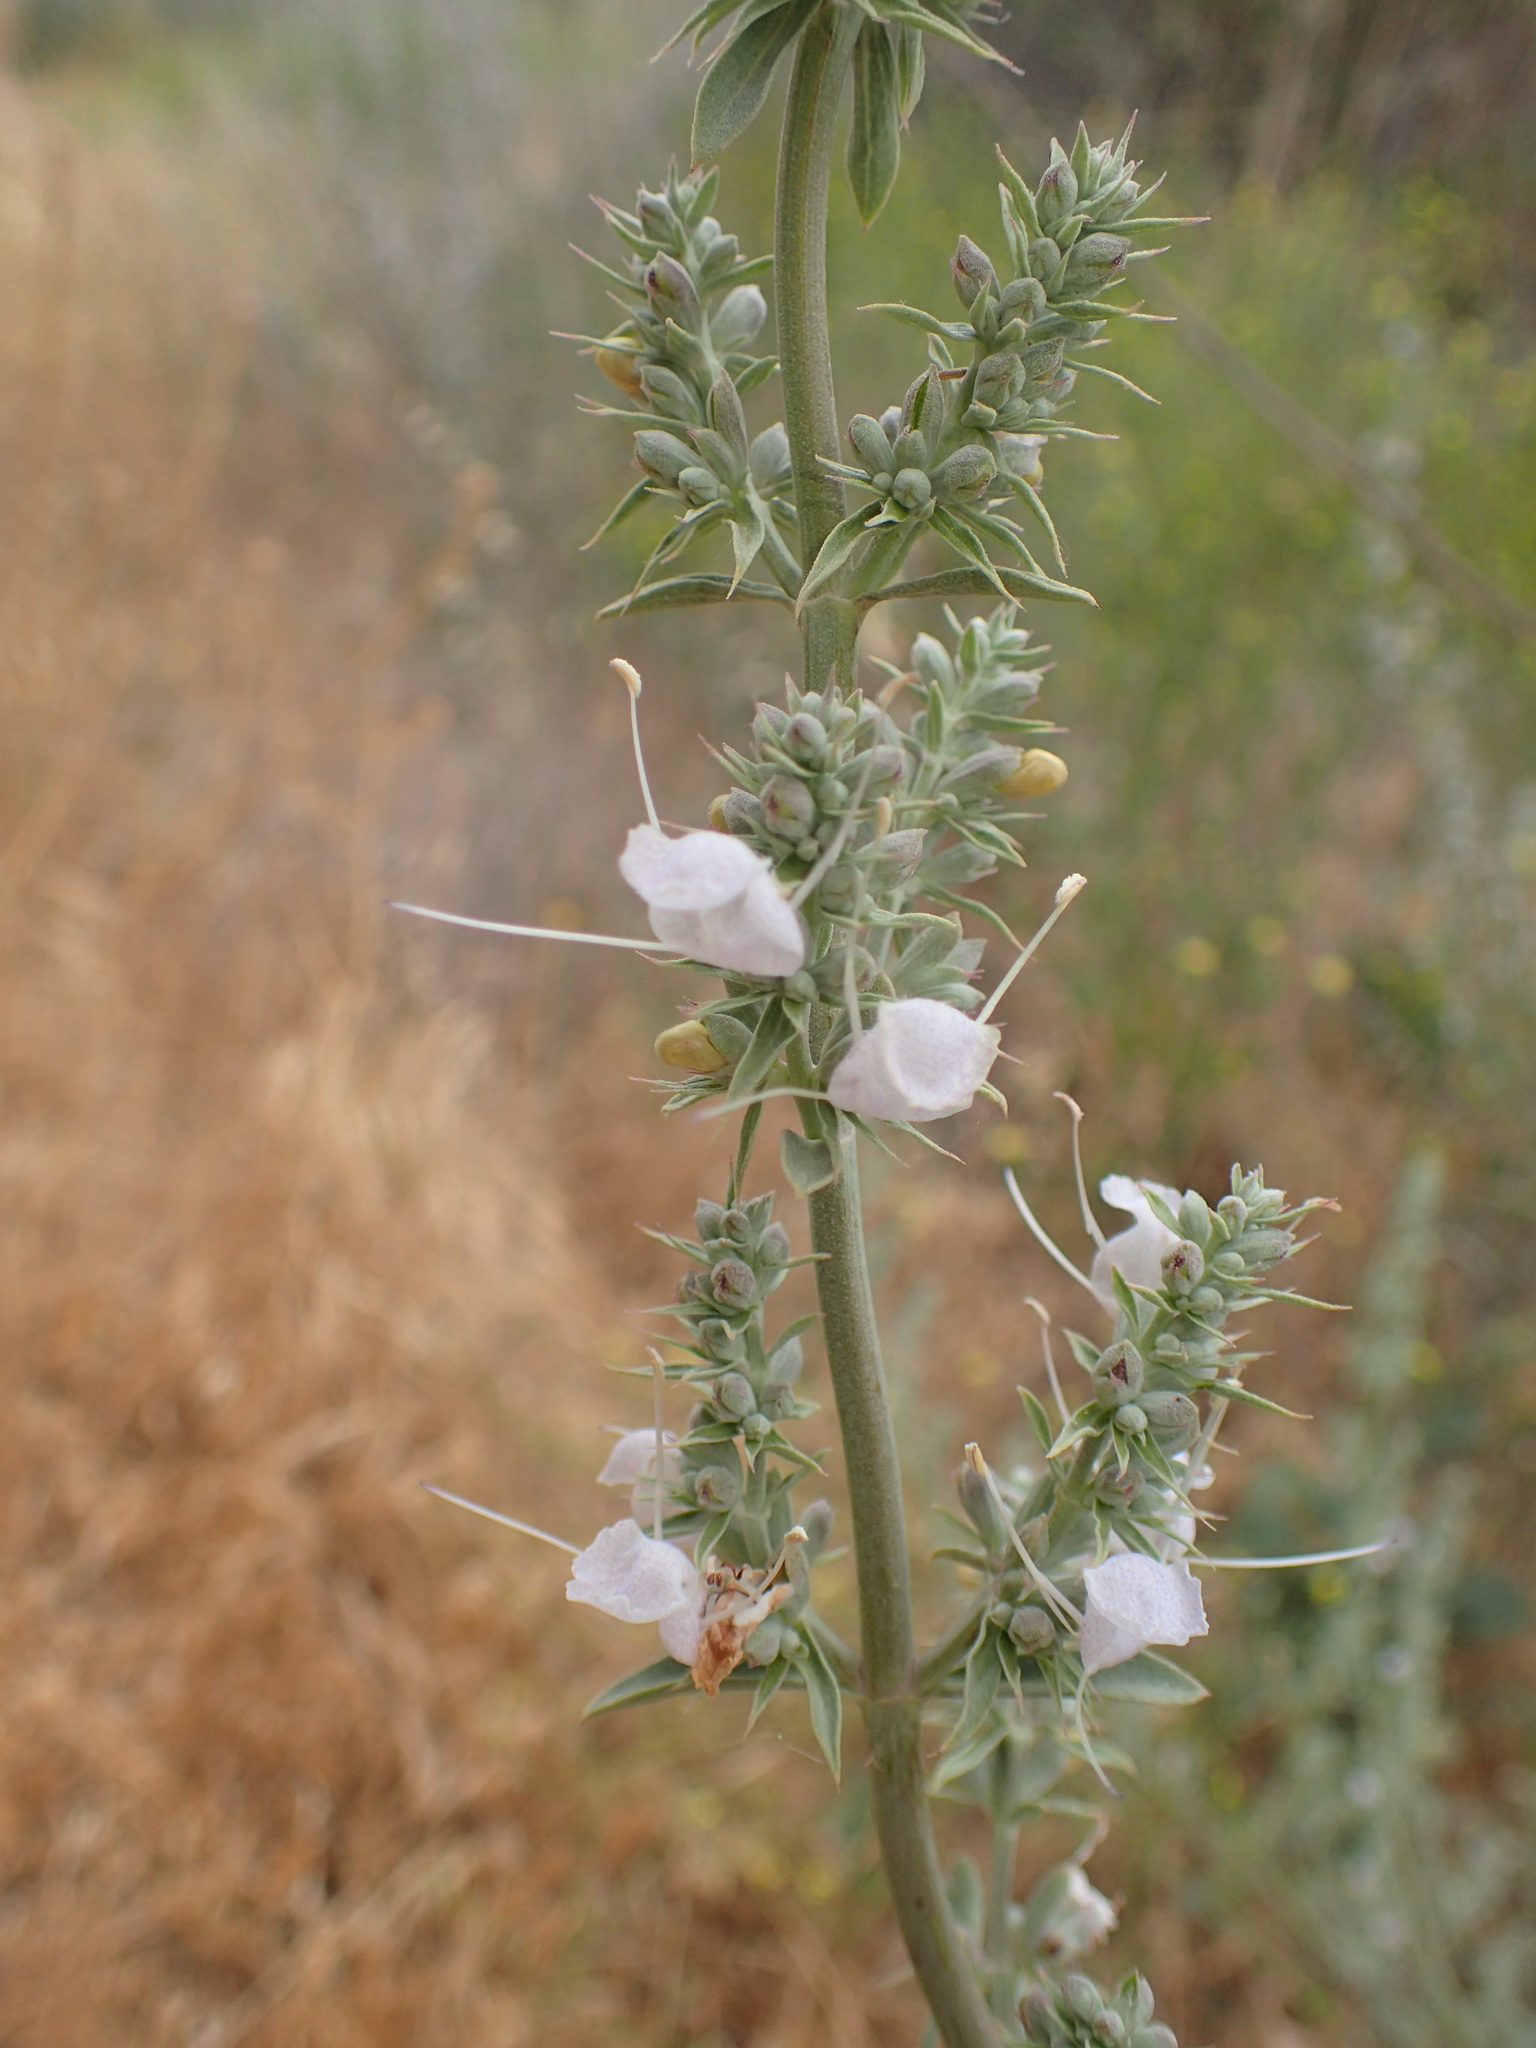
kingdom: Plantae
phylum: Tracheophyta
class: Magnoliopsida
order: Lamiales
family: Lamiaceae
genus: Salvia
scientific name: Salvia apiana
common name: White sage
